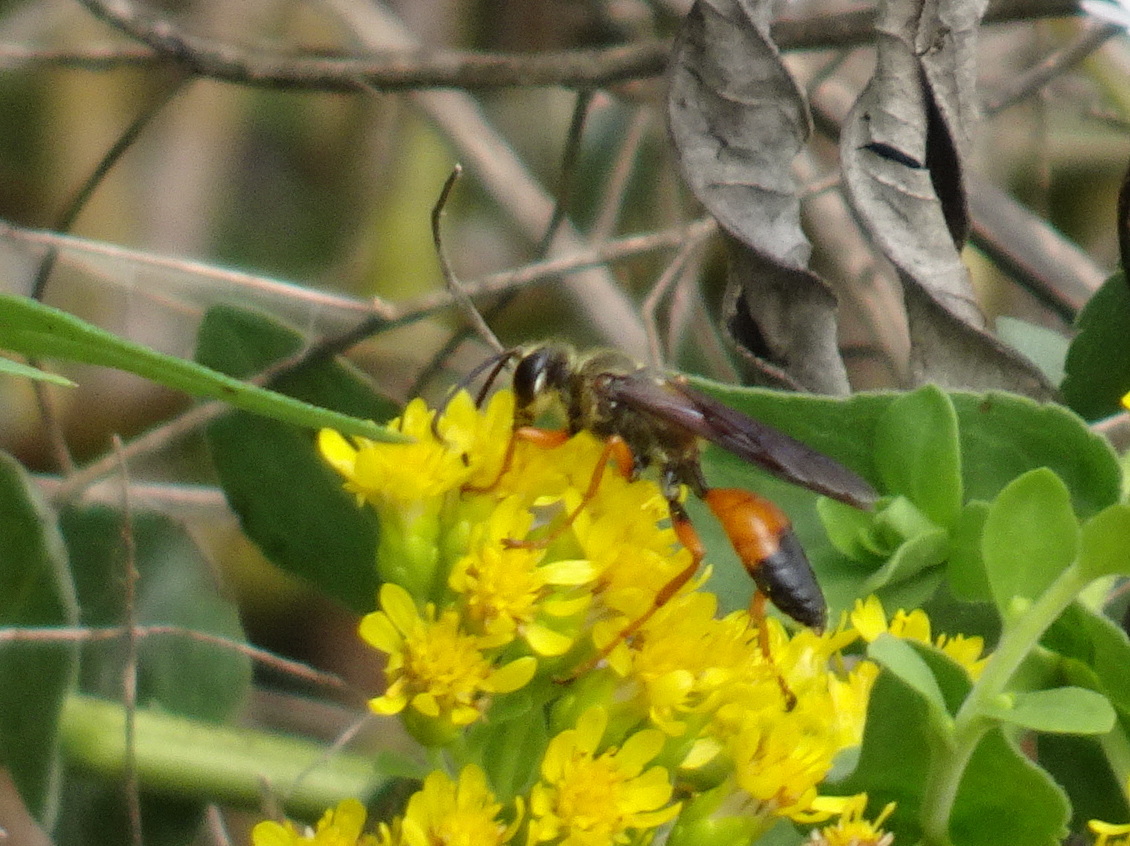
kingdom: Animalia
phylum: Arthropoda
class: Insecta
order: Hymenoptera
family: Sphecidae
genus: Sphex
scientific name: Sphex ichneumoneus
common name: Great golden digger wasp
